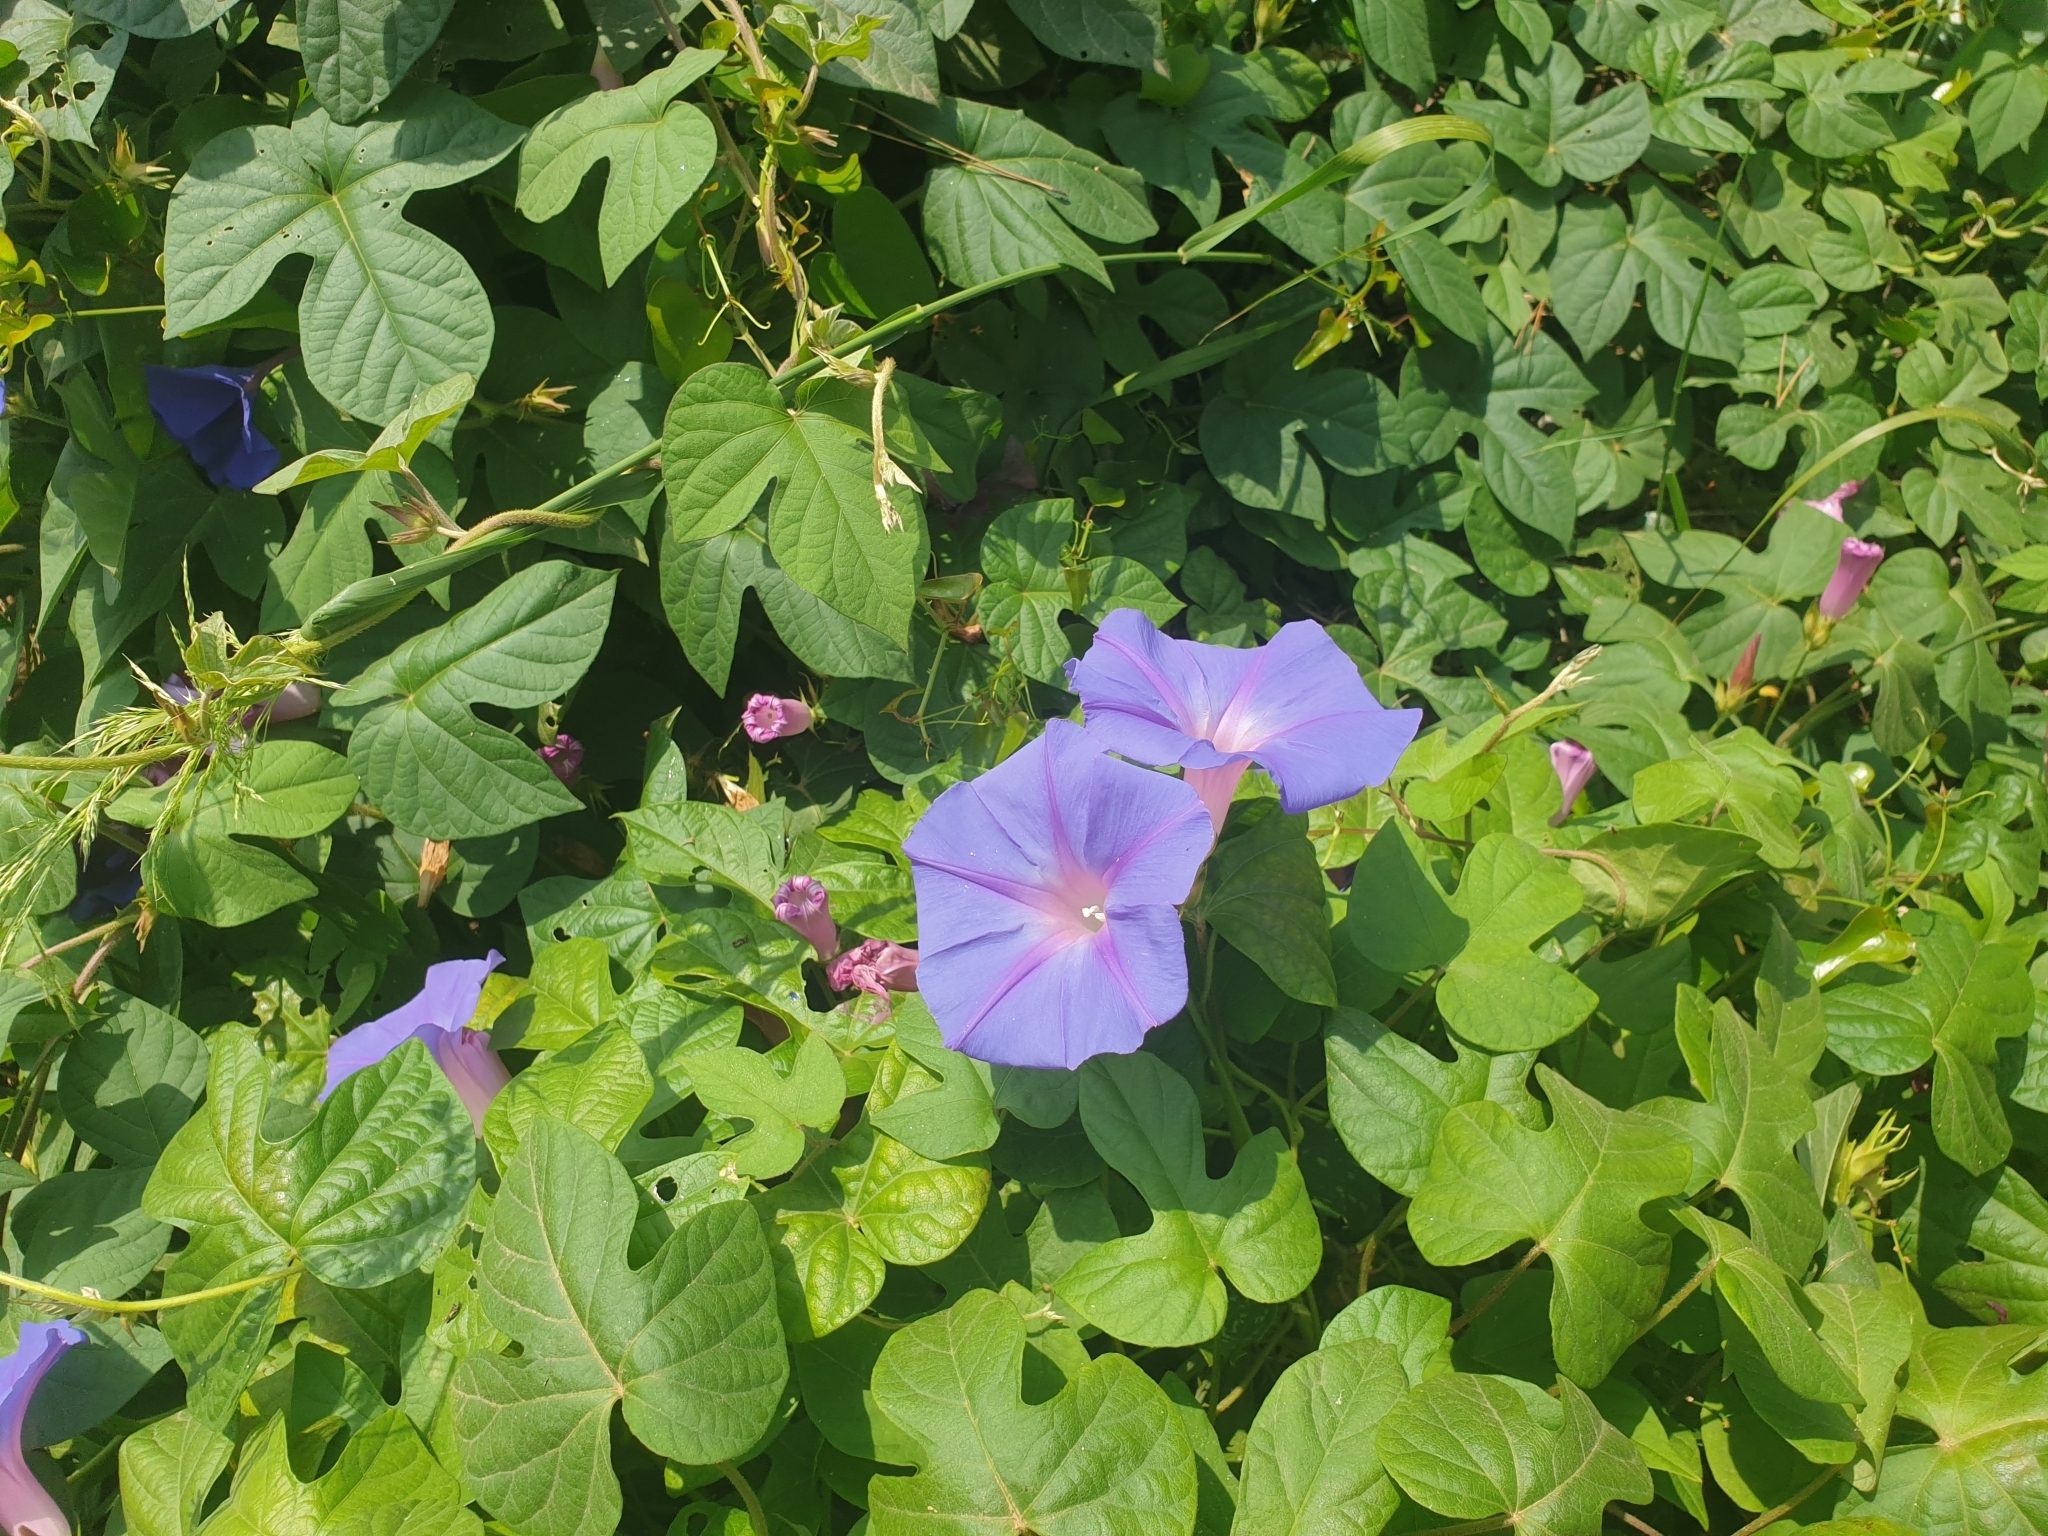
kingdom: Plantae
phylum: Tracheophyta
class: Magnoliopsida
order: Solanales
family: Convolvulaceae
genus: Ipomoea
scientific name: Ipomoea indica
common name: Blue dawnflower
